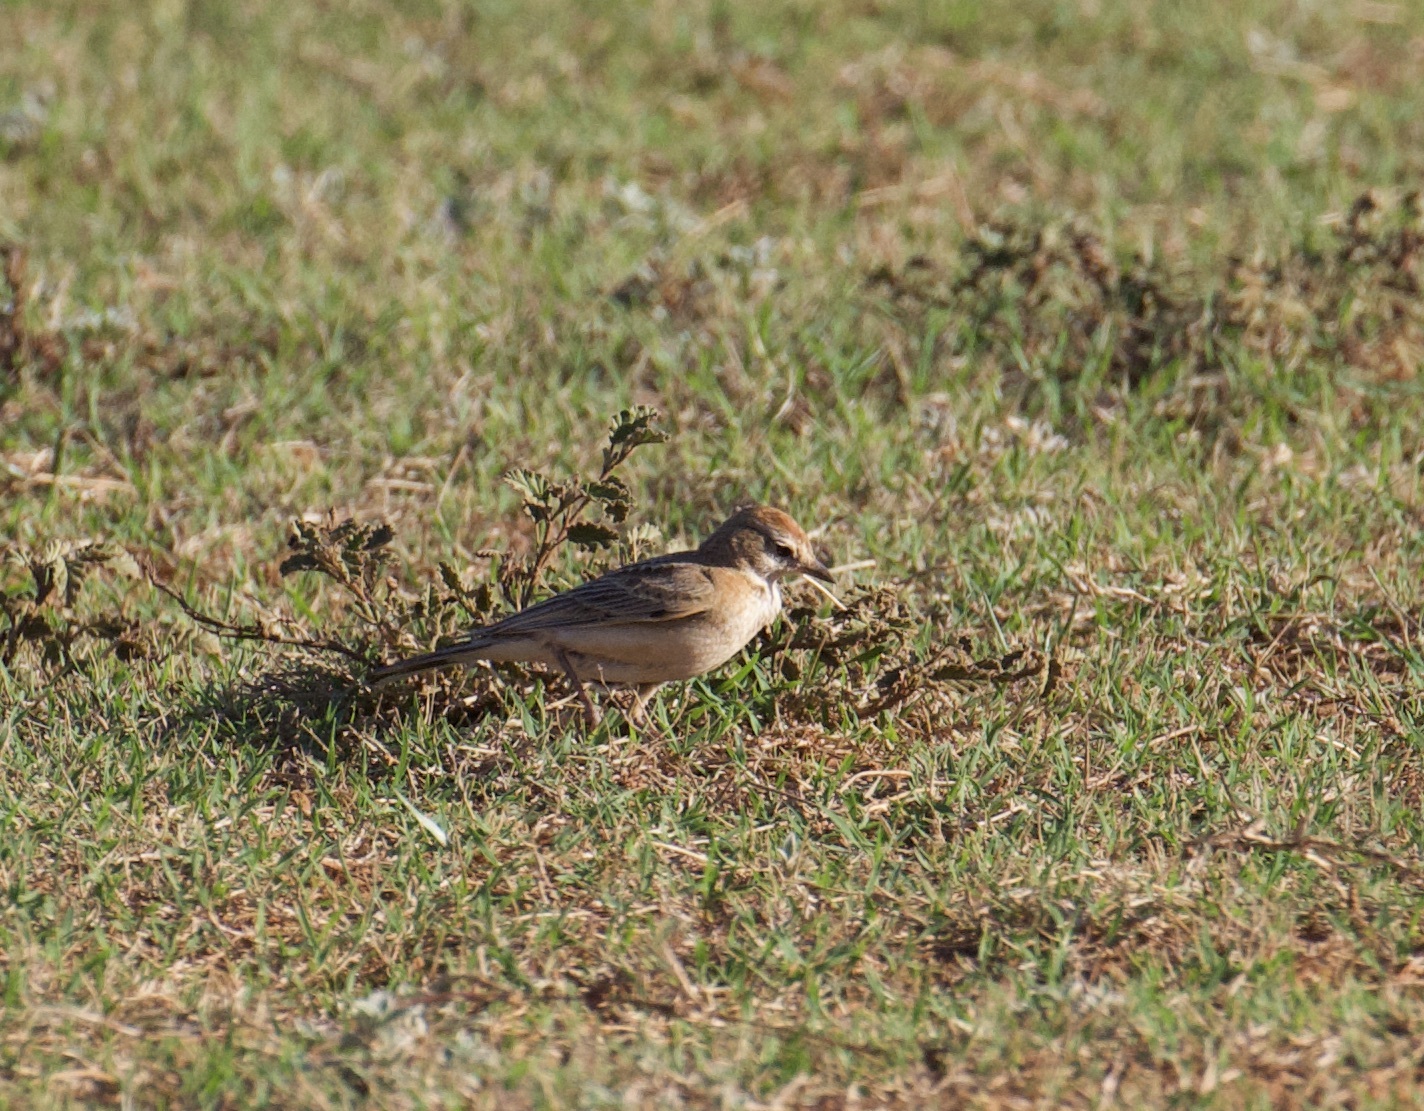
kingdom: Animalia
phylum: Chordata
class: Aves
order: Passeriformes
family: Alaudidae
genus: Calandrella
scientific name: Calandrella cinerea
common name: Red-capped lark
